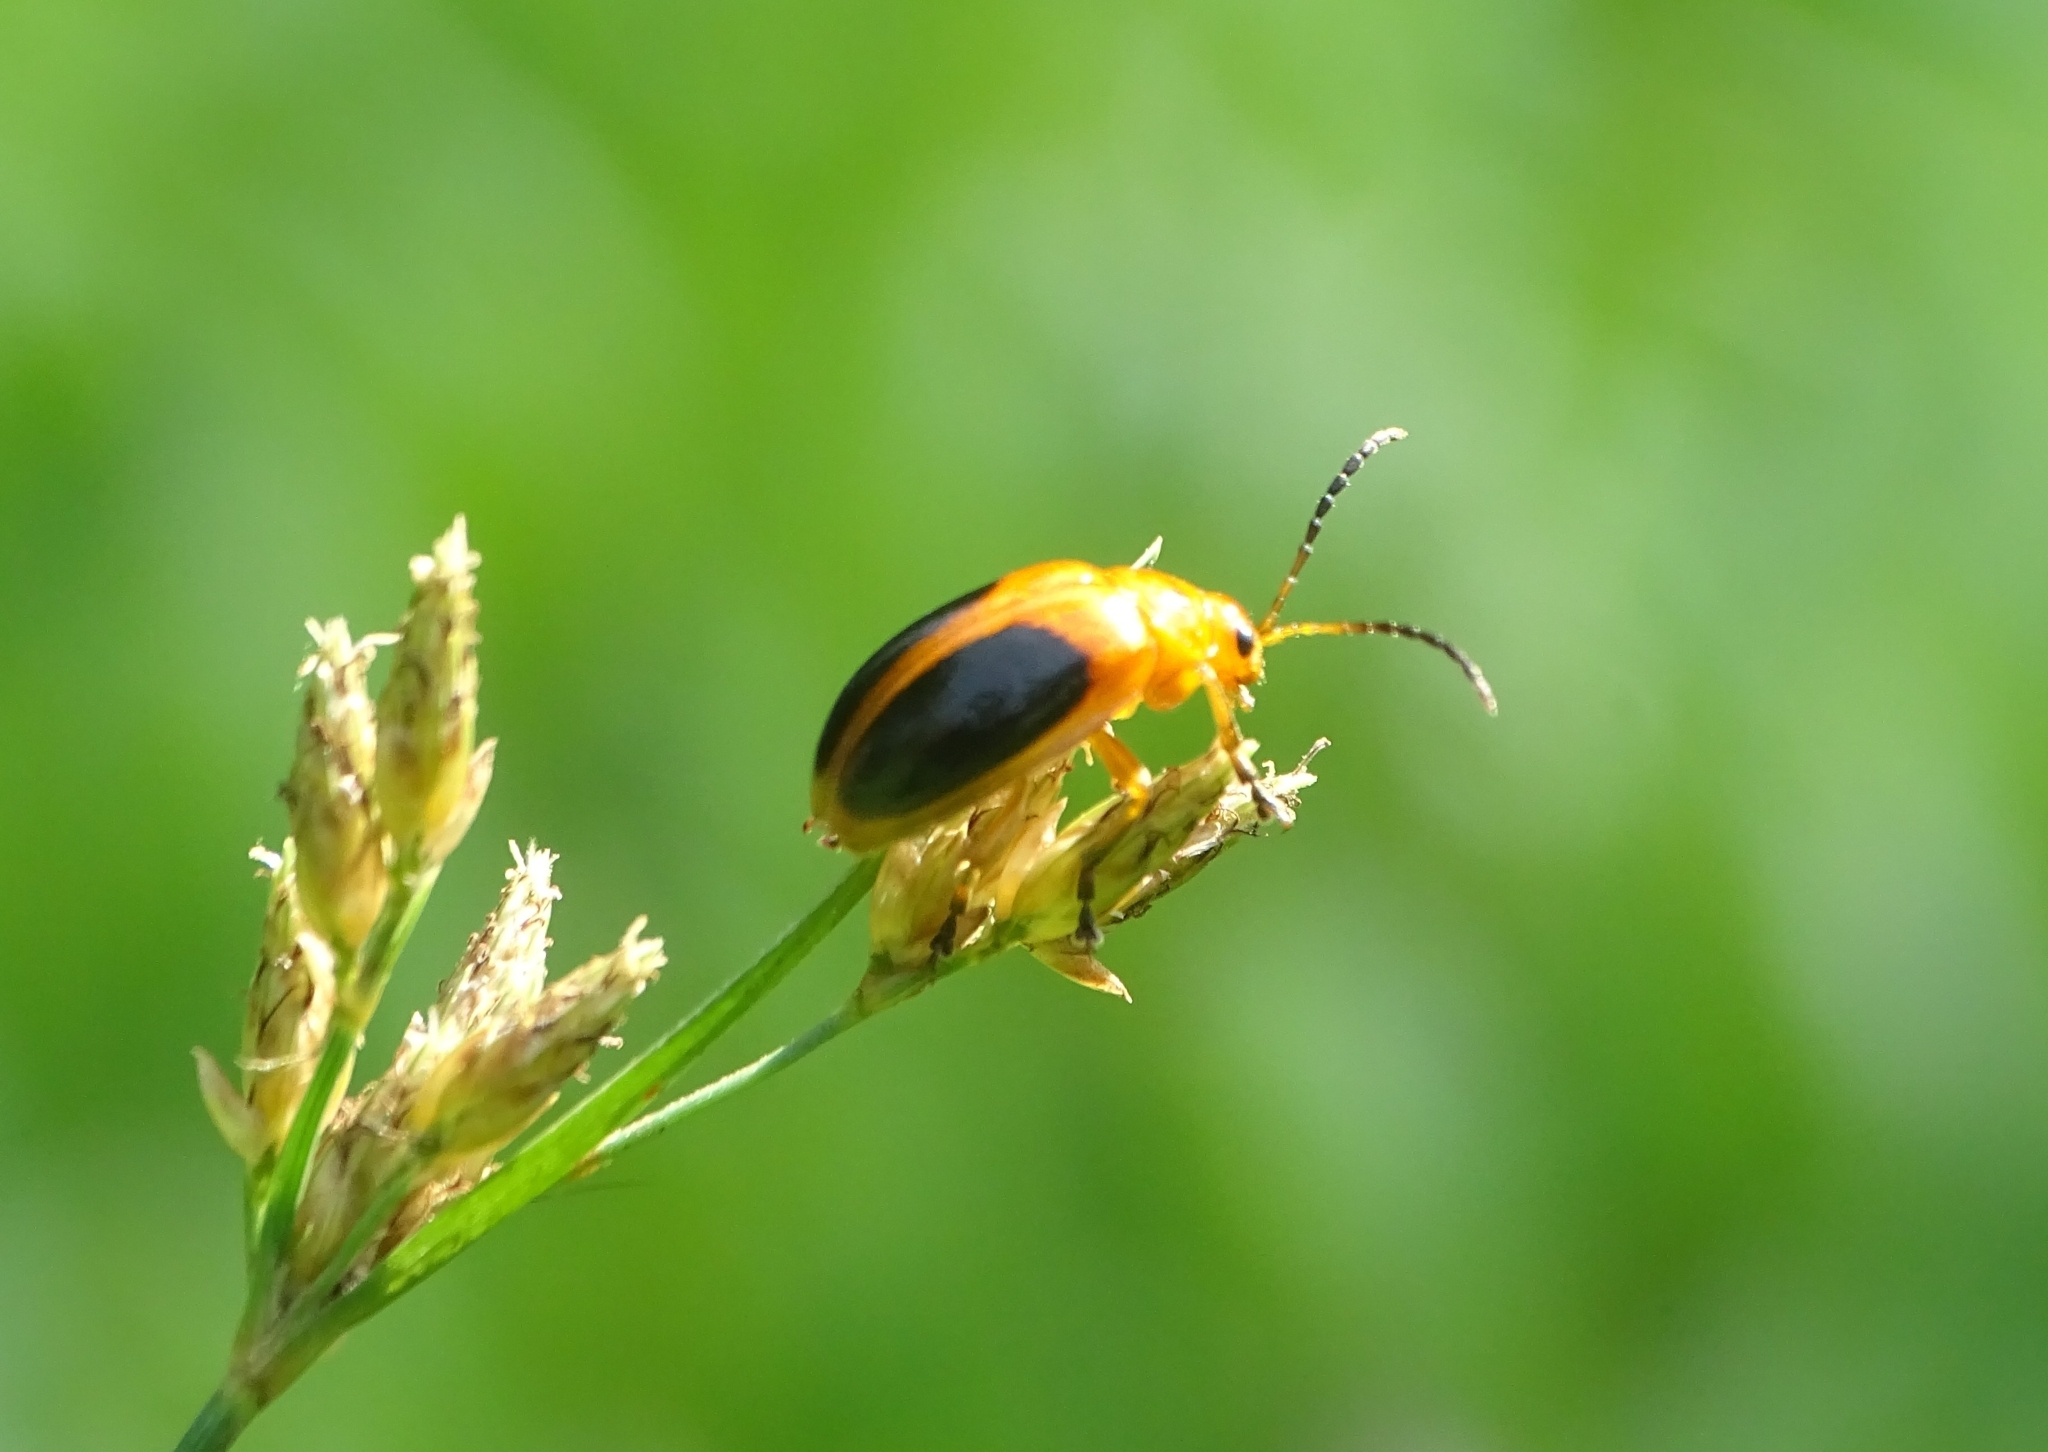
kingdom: Animalia
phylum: Arthropoda
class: Insecta
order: Coleoptera
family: Chrysomelidae
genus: Oides
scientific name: Oides affinis
